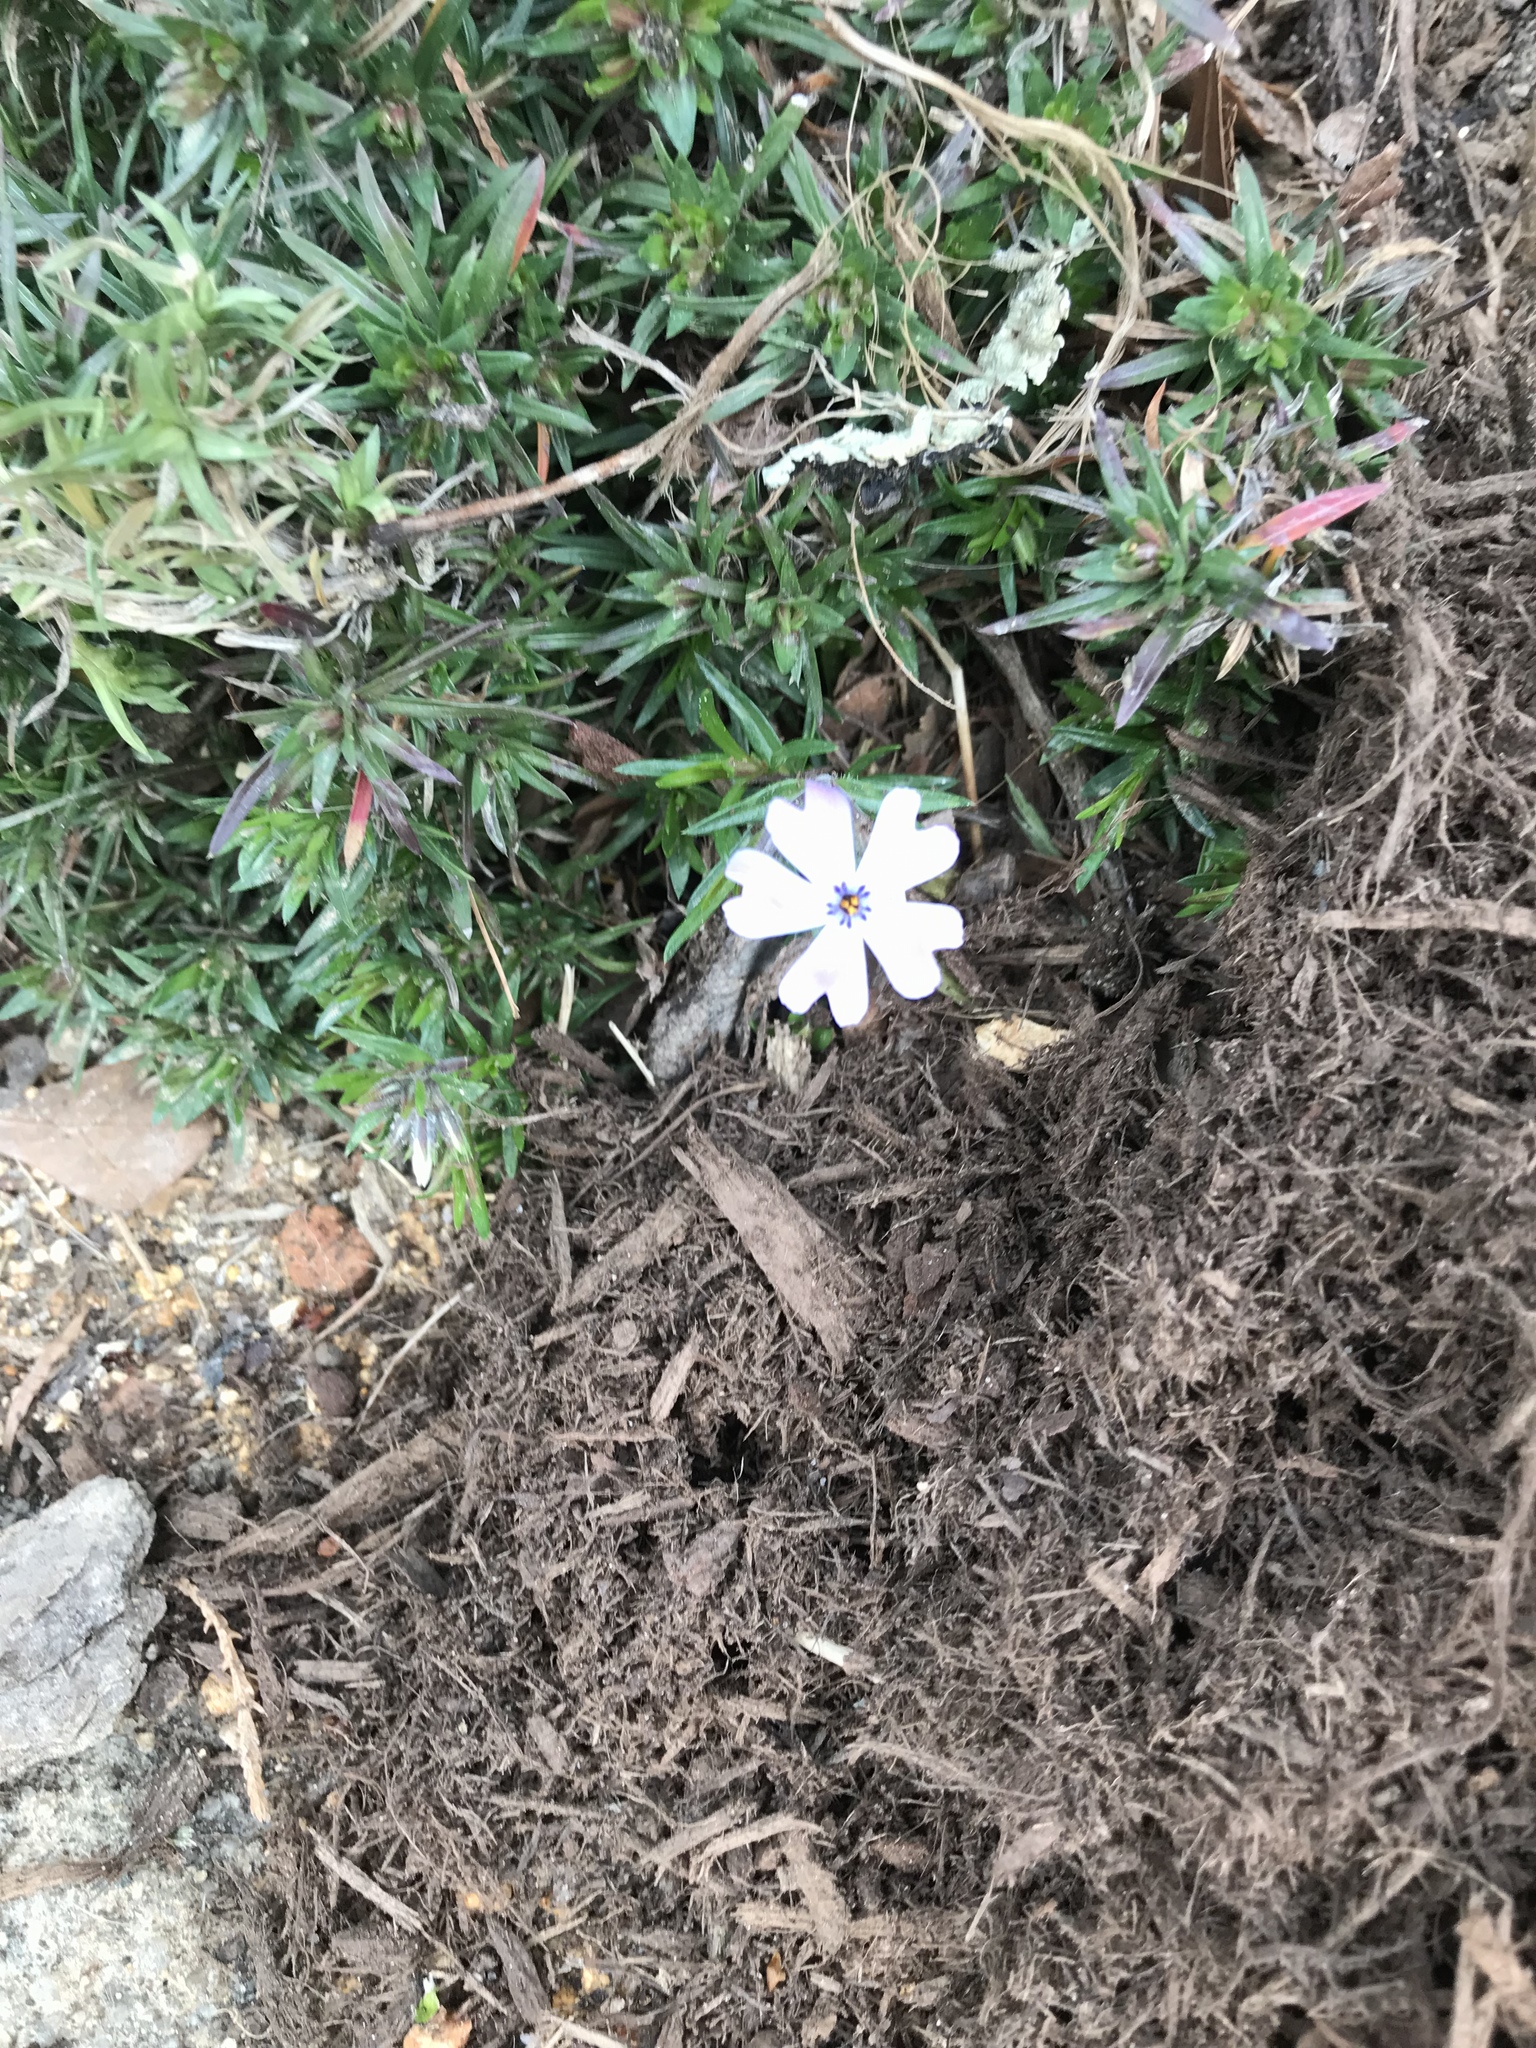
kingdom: Plantae
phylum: Tracheophyta
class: Magnoliopsida
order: Ericales
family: Polemoniaceae
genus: Phlox
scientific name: Phlox subulata
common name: Moss phlox
